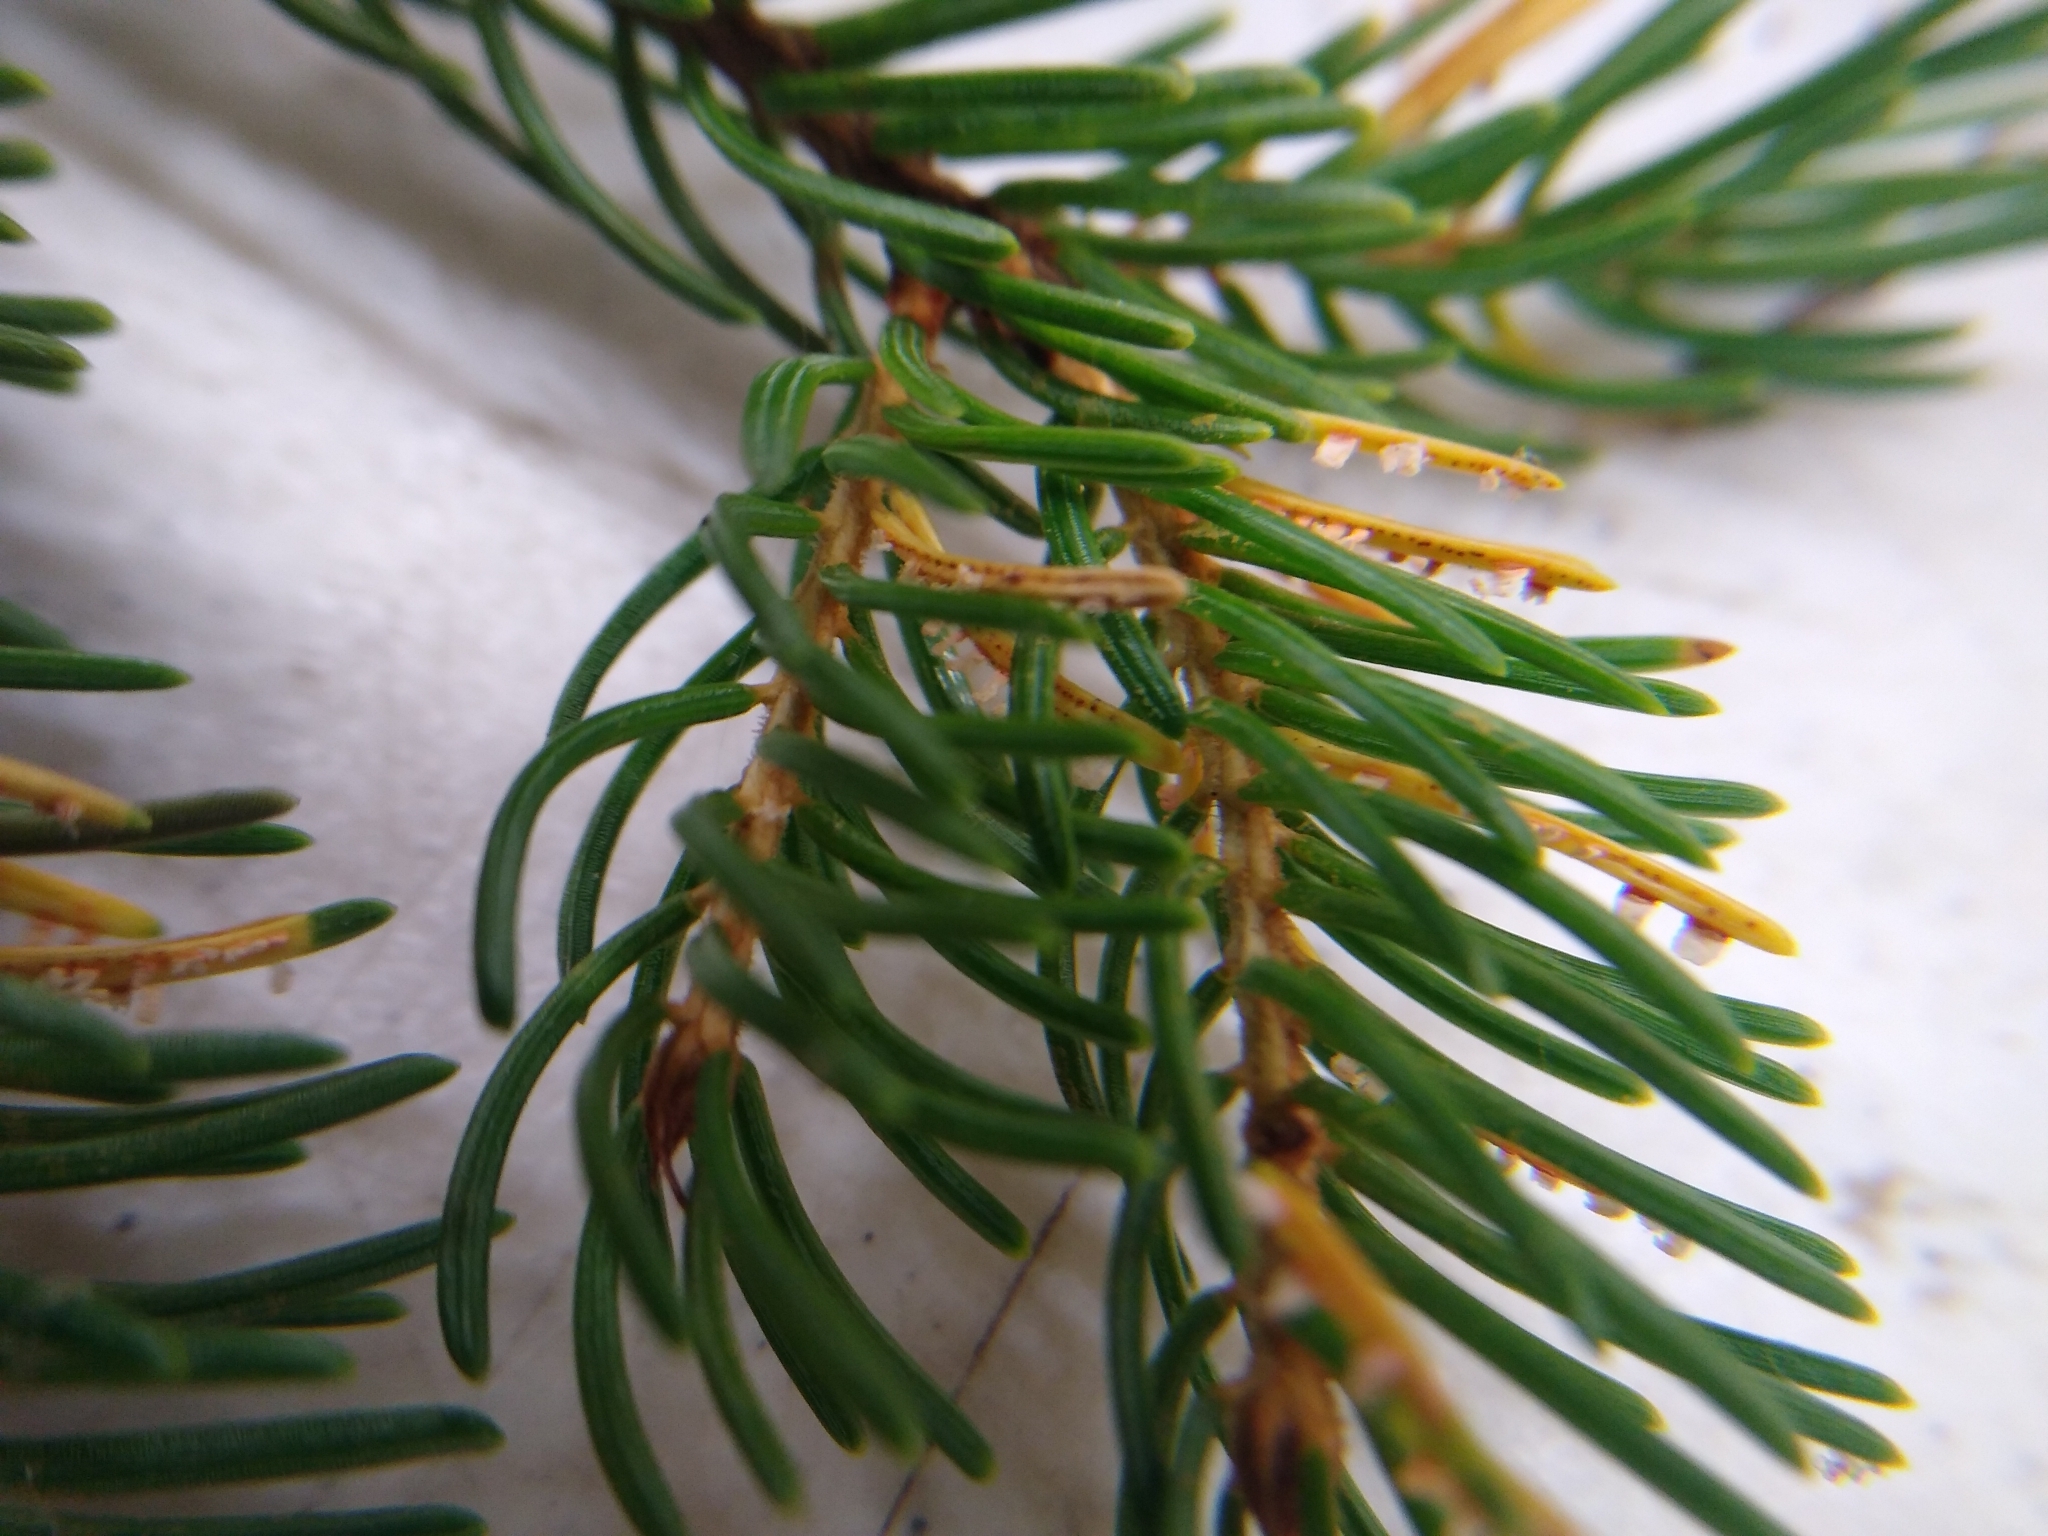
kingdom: Fungi
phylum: Basidiomycota
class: Pucciniomycetes
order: Pucciniales
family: Coleosporiaceae
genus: Chrysomyxa
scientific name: Chrysomyxa ledi
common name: Needle rust
